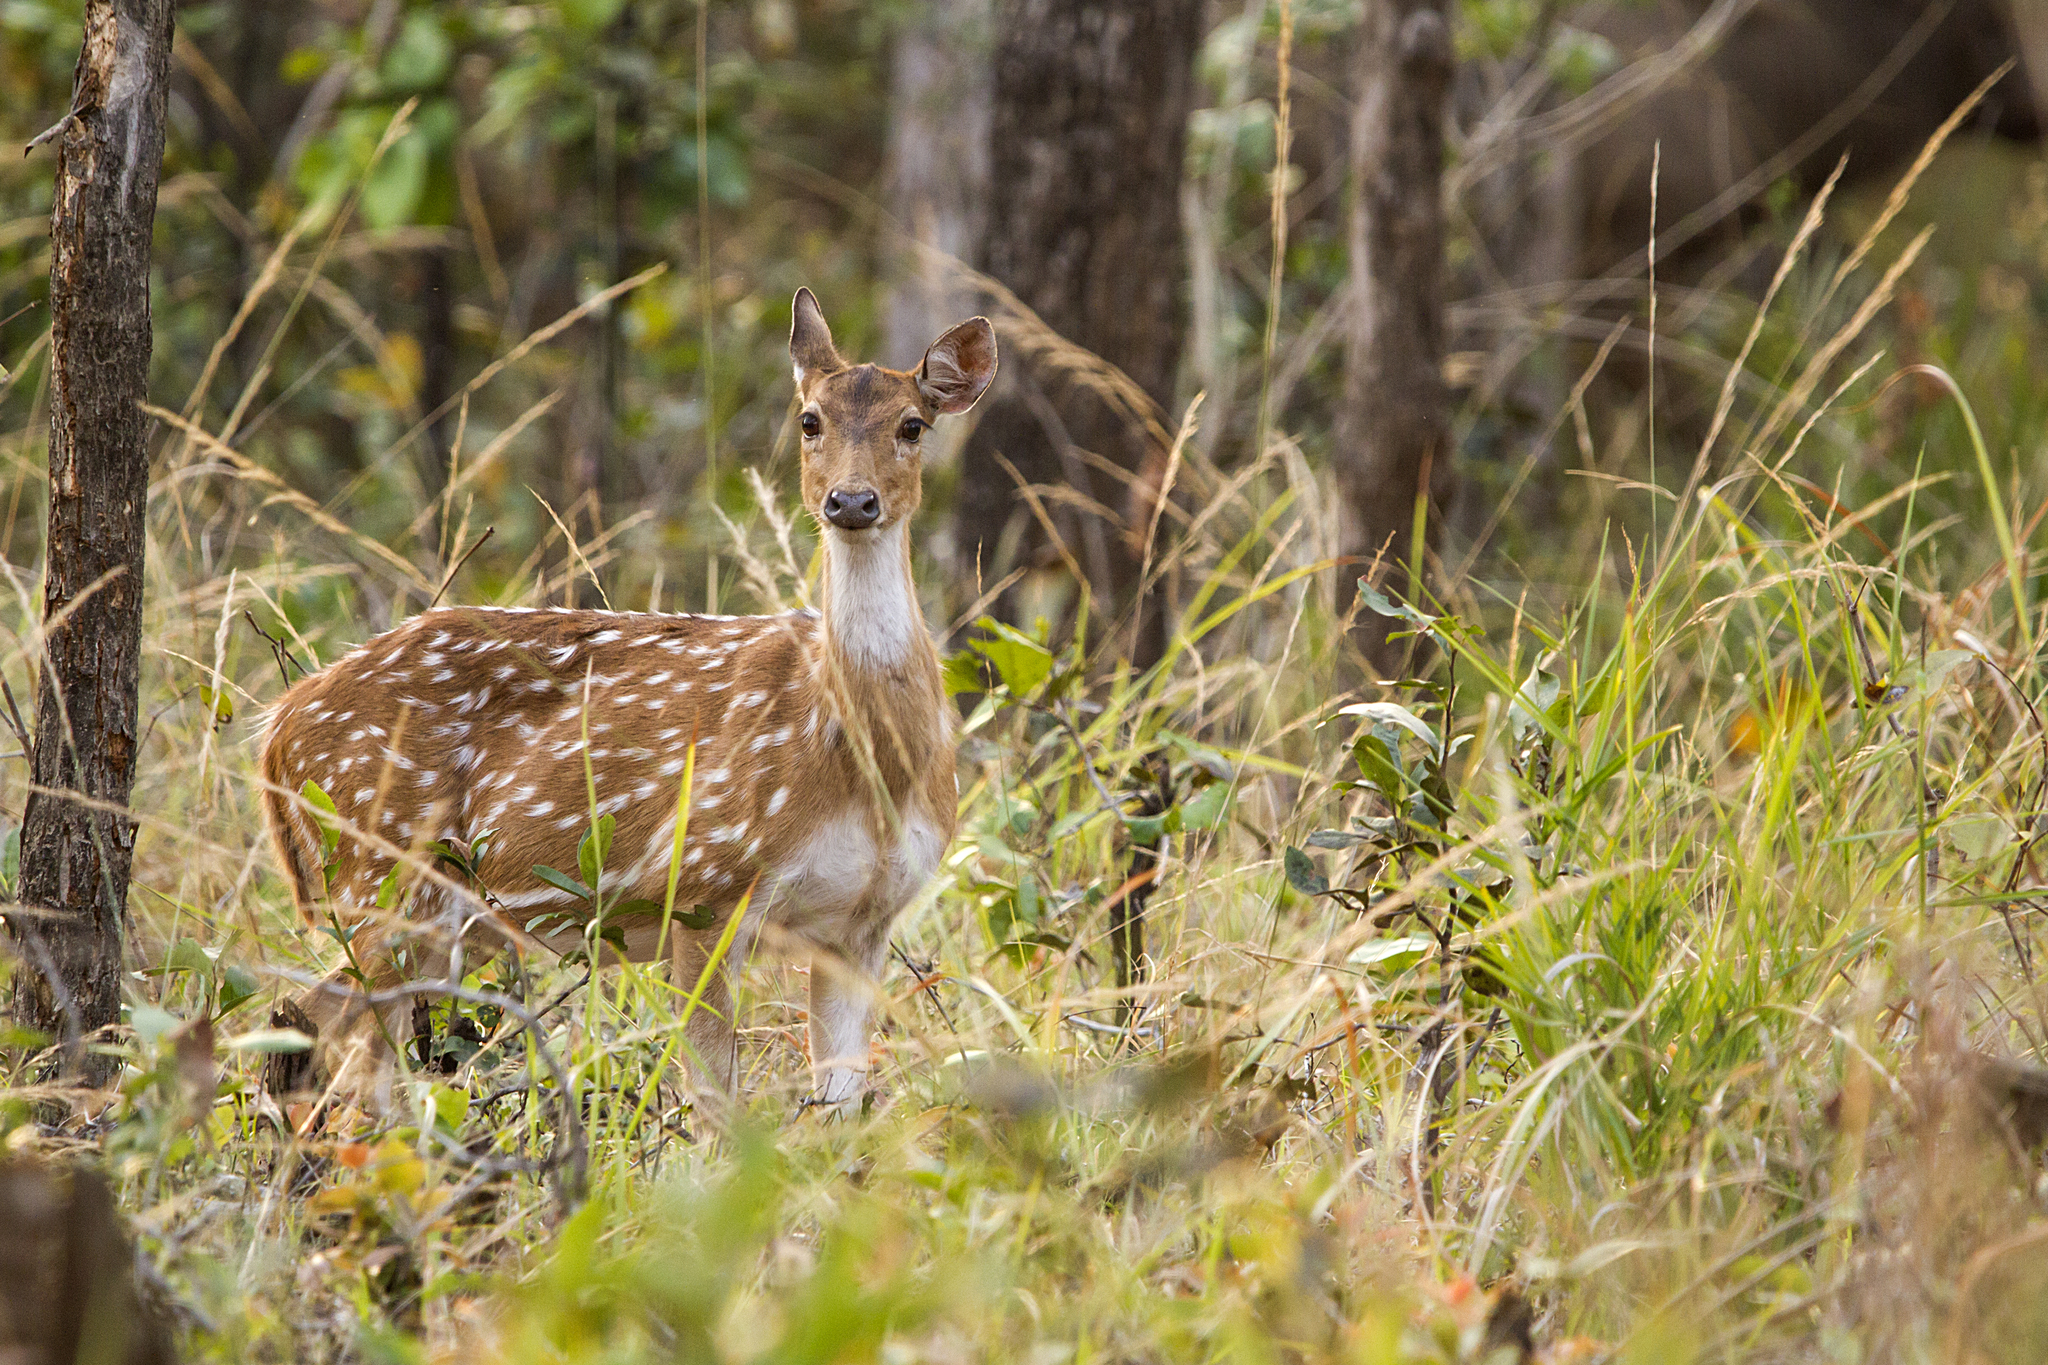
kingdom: Animalia
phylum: Chordata
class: Mammalia
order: Artiodactyla
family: Cervidae
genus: Axis
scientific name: Axis axis
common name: Chital
